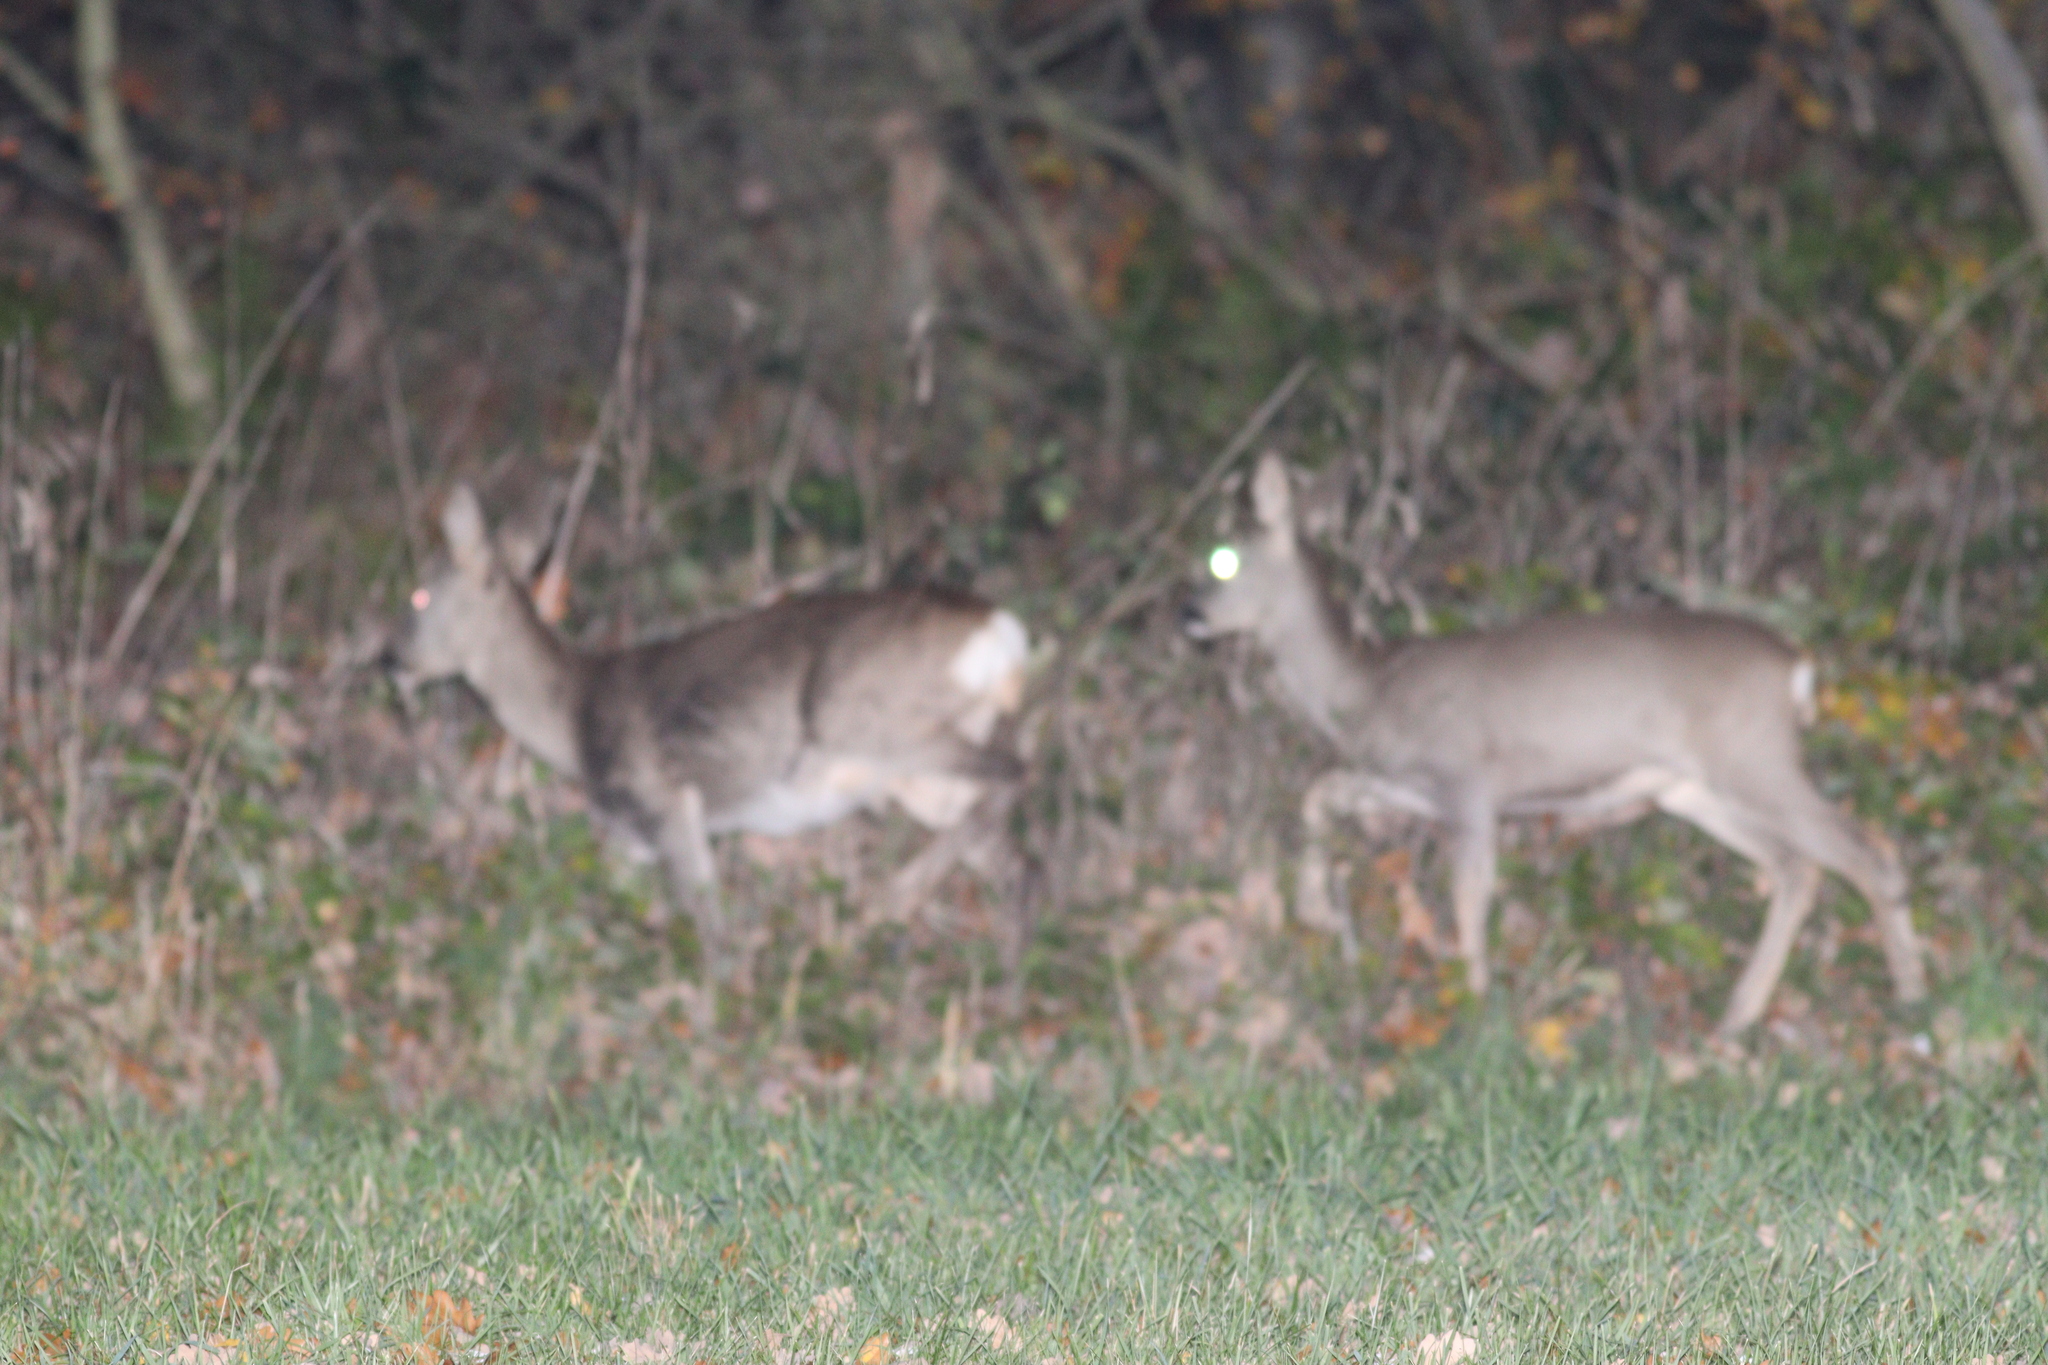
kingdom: Animalia
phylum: Chordata
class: Mammalia
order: Artiodactyla
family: Cervidae
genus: Capreolus
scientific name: Capreolus capreolus
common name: Western roe deer
